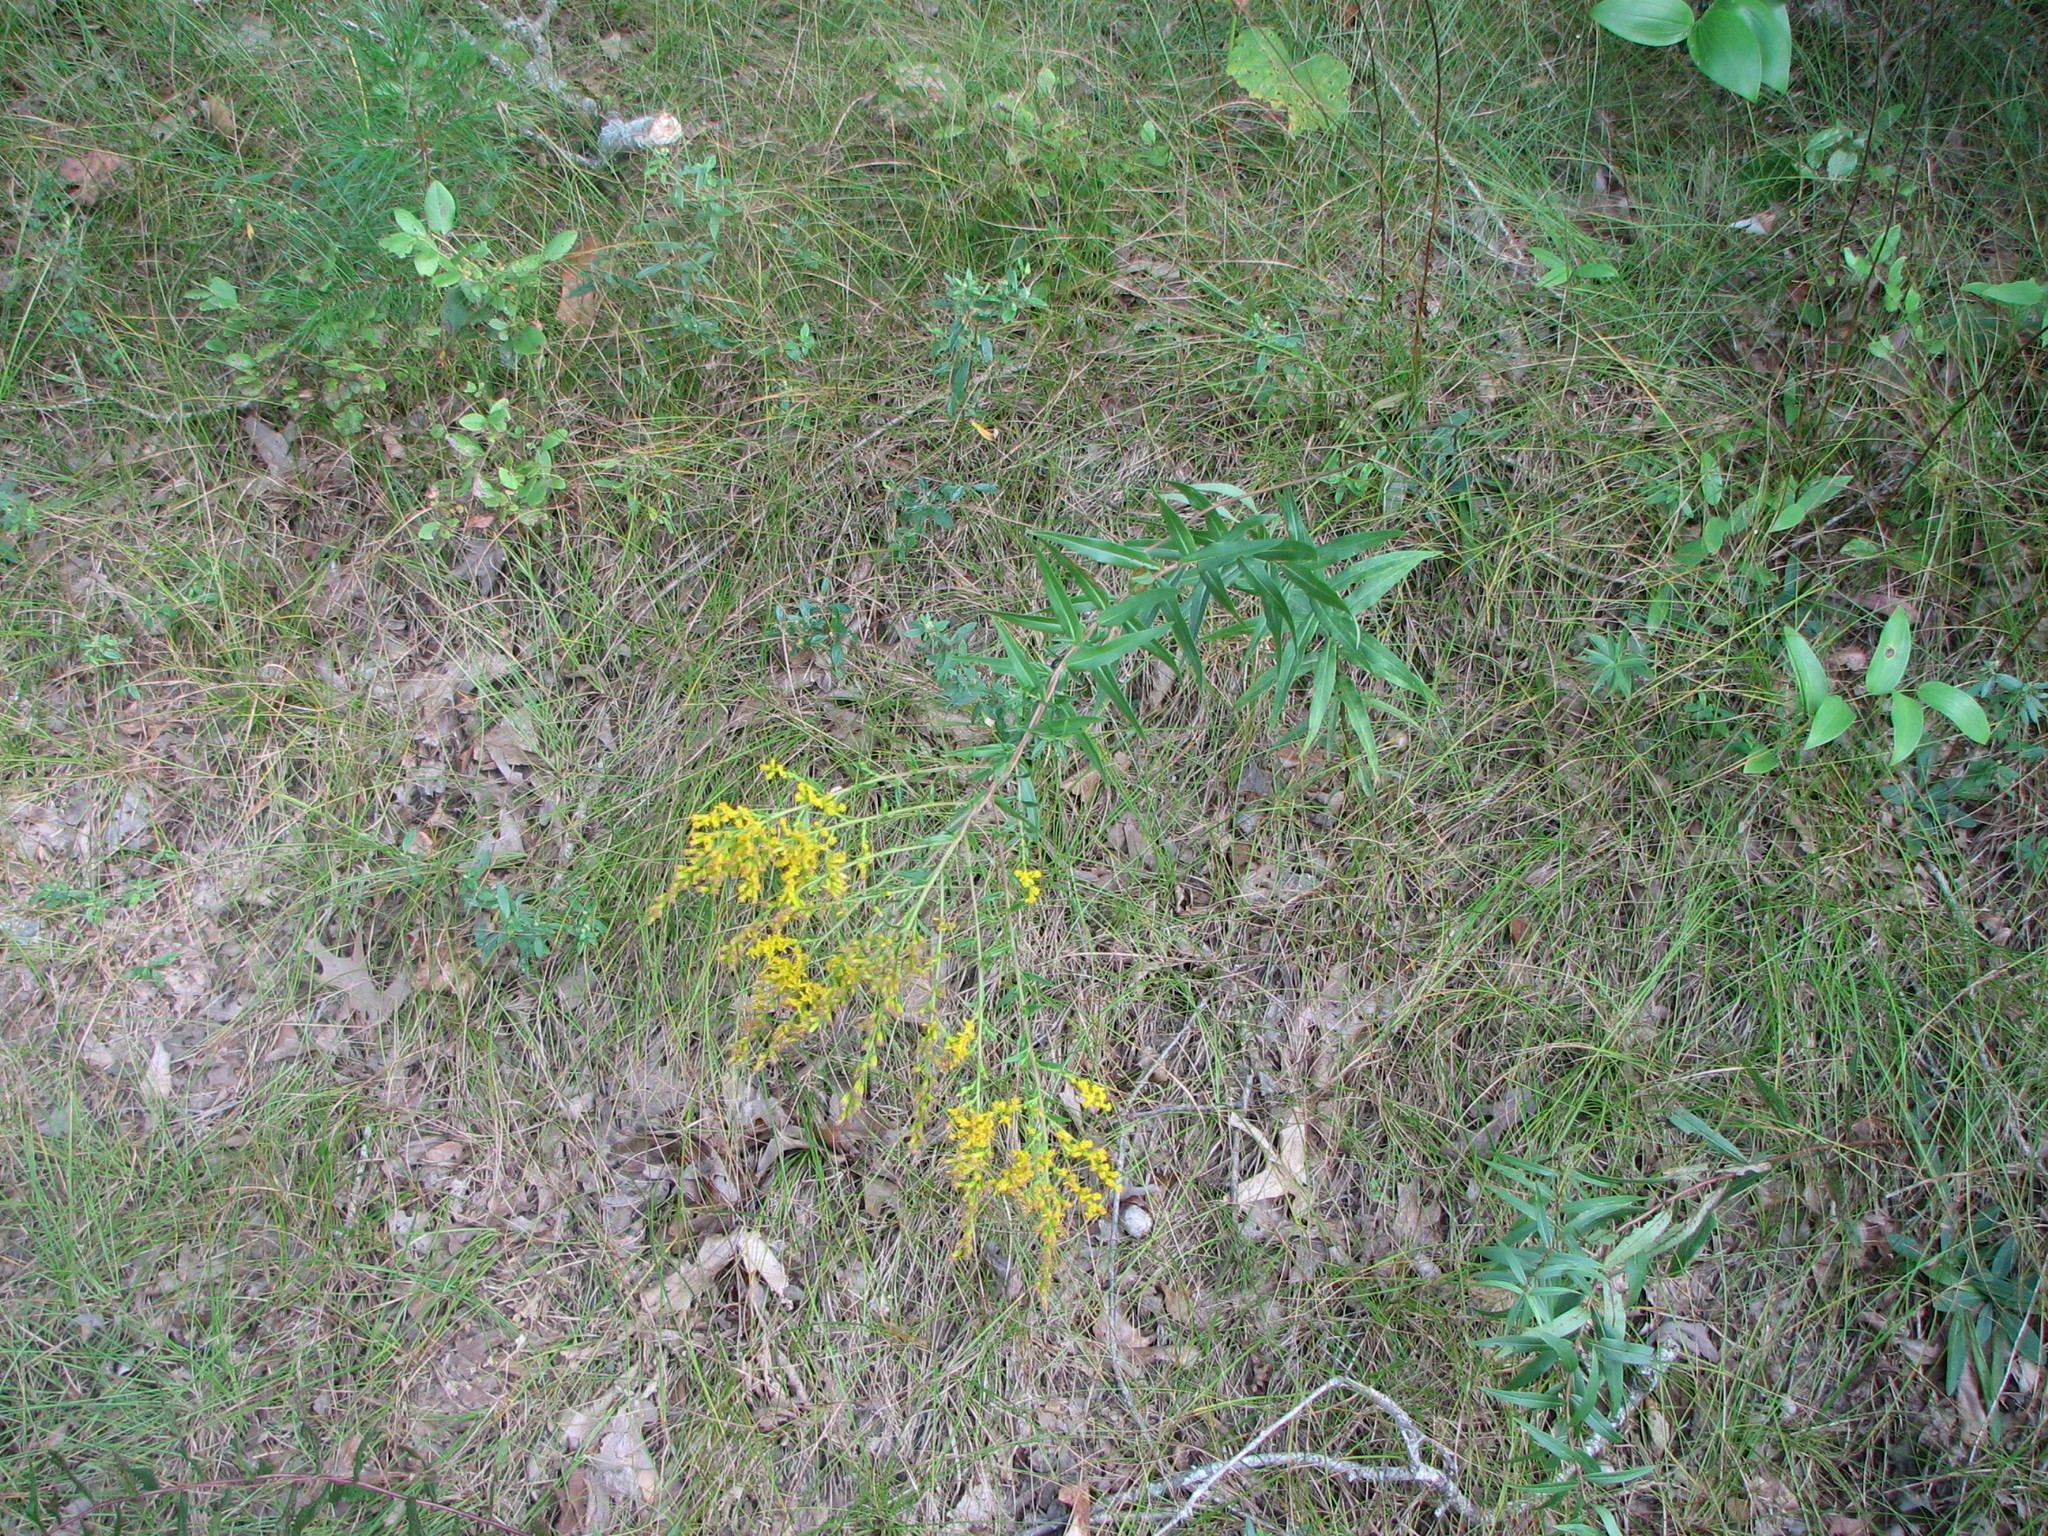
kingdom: Plantae
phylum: Tracheophyta
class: Magnoliopsida
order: Asterales
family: Asteraceae
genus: Solidago
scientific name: Solidago odora
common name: Anise-scented goldenrod
